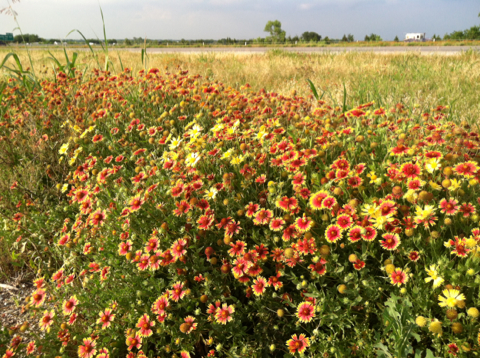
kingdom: Plantae
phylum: Tracheophyta
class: Magnoliopsida
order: Asterales
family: Asteraceae
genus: Gaillardia
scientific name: Gaillardia pulchella
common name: Firewheel
